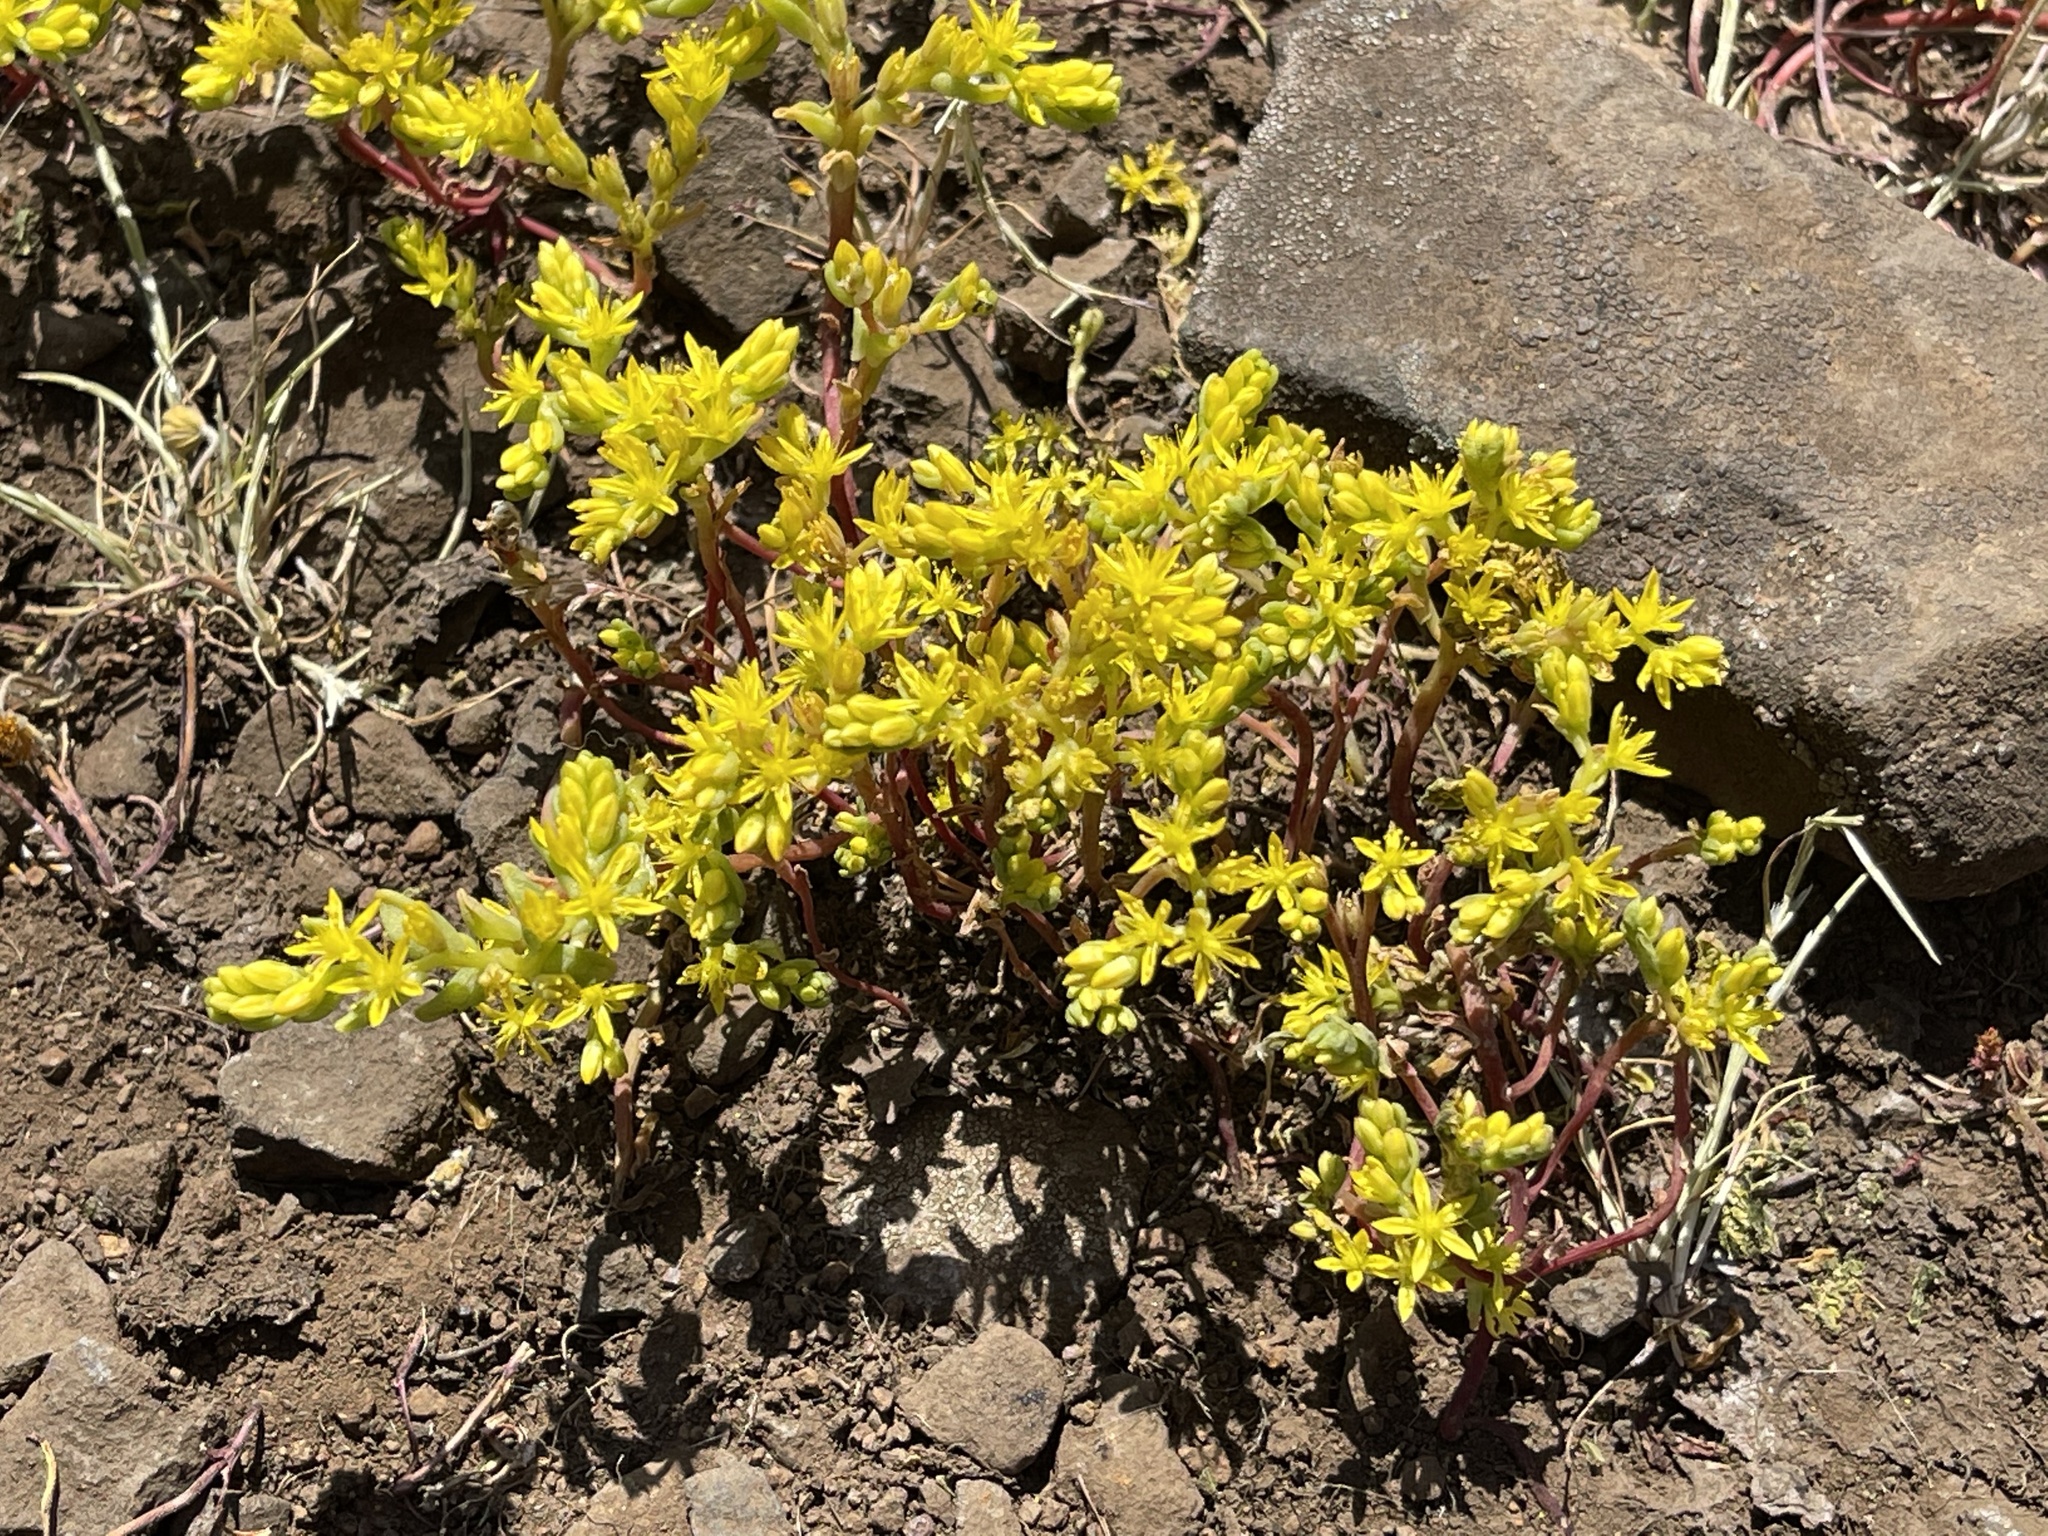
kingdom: Plantae
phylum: Tracheophyta
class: Magnoliopsida
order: Saxifragales
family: Crassulaceae
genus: Sedella
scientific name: Sedella pumila
